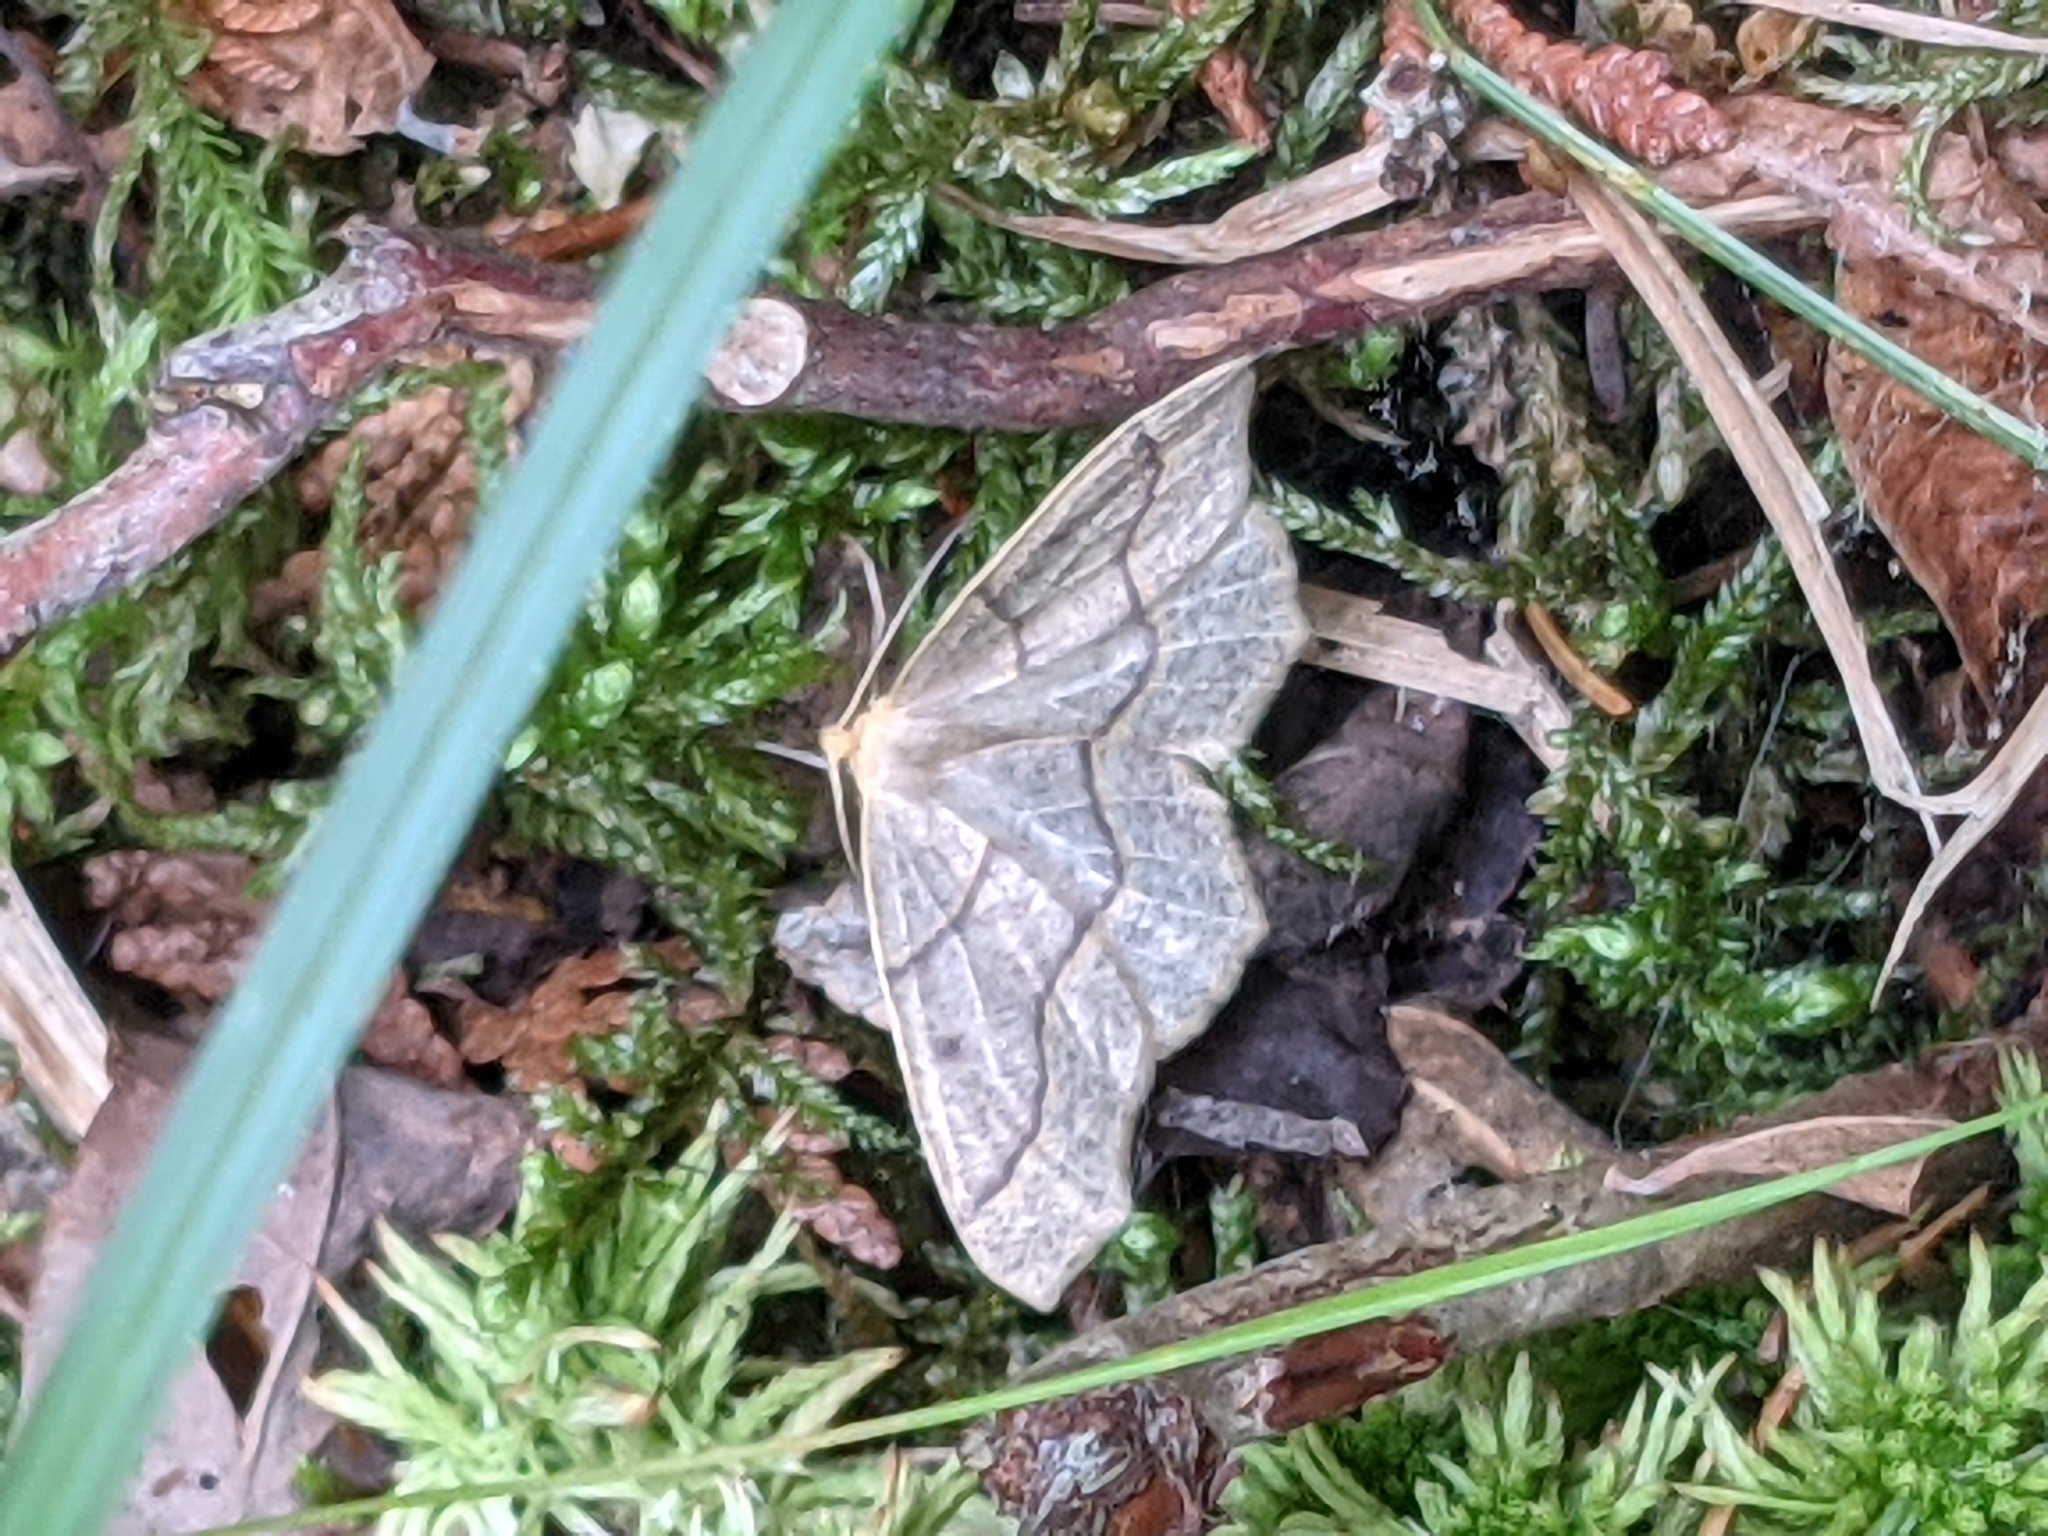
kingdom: Animalia
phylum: Arthropoda
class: Insecta
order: Lepidoptera
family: Geometridae
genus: Lambdina
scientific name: Lambdina fiscellaria
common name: Hemlock looper
